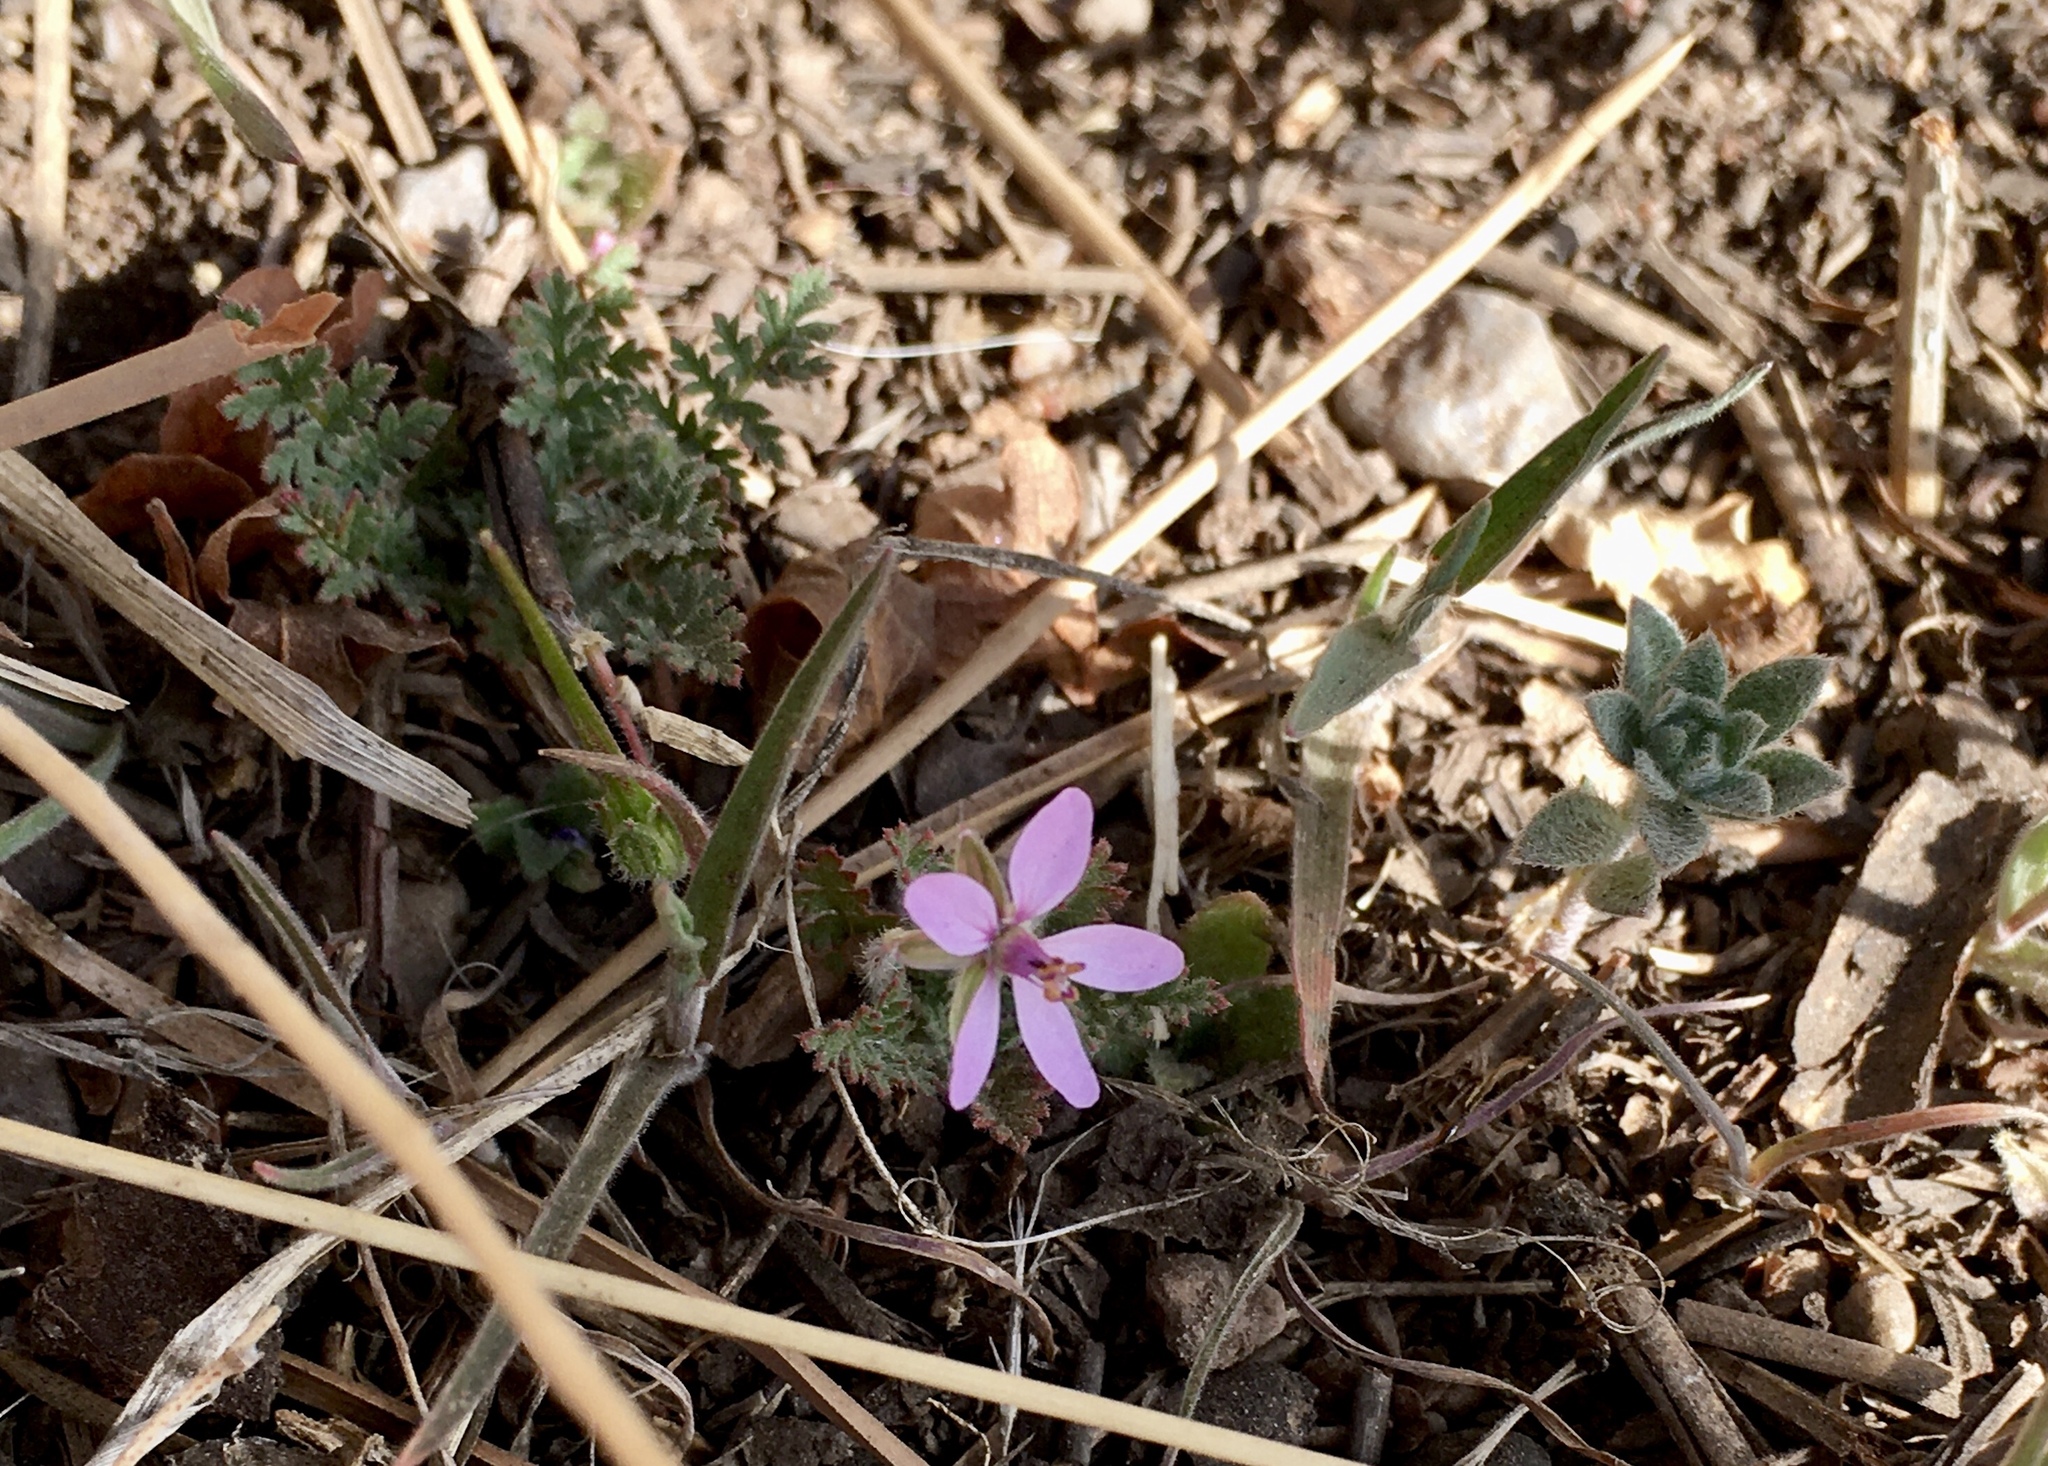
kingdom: Plantae
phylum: Tracheophyta
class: Magnoliopsida
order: Geraniales
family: Geraniaceae
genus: Erodium
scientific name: Erodium cicutarium
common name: Common stork's-bill
